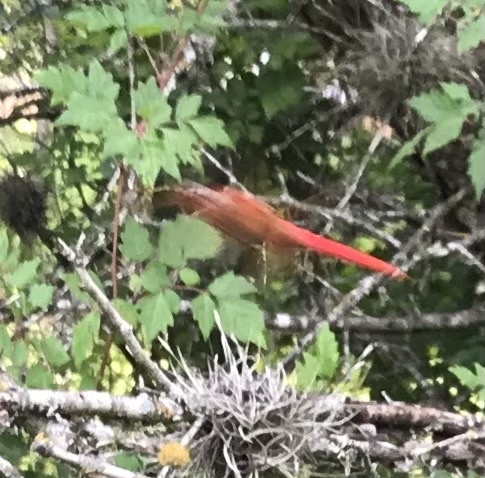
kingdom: Animalia
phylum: Arthropoda
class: Insecta
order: Odonata
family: Libellulidae
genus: Libellula
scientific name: Libellula croceipennis
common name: Neon skimmer
